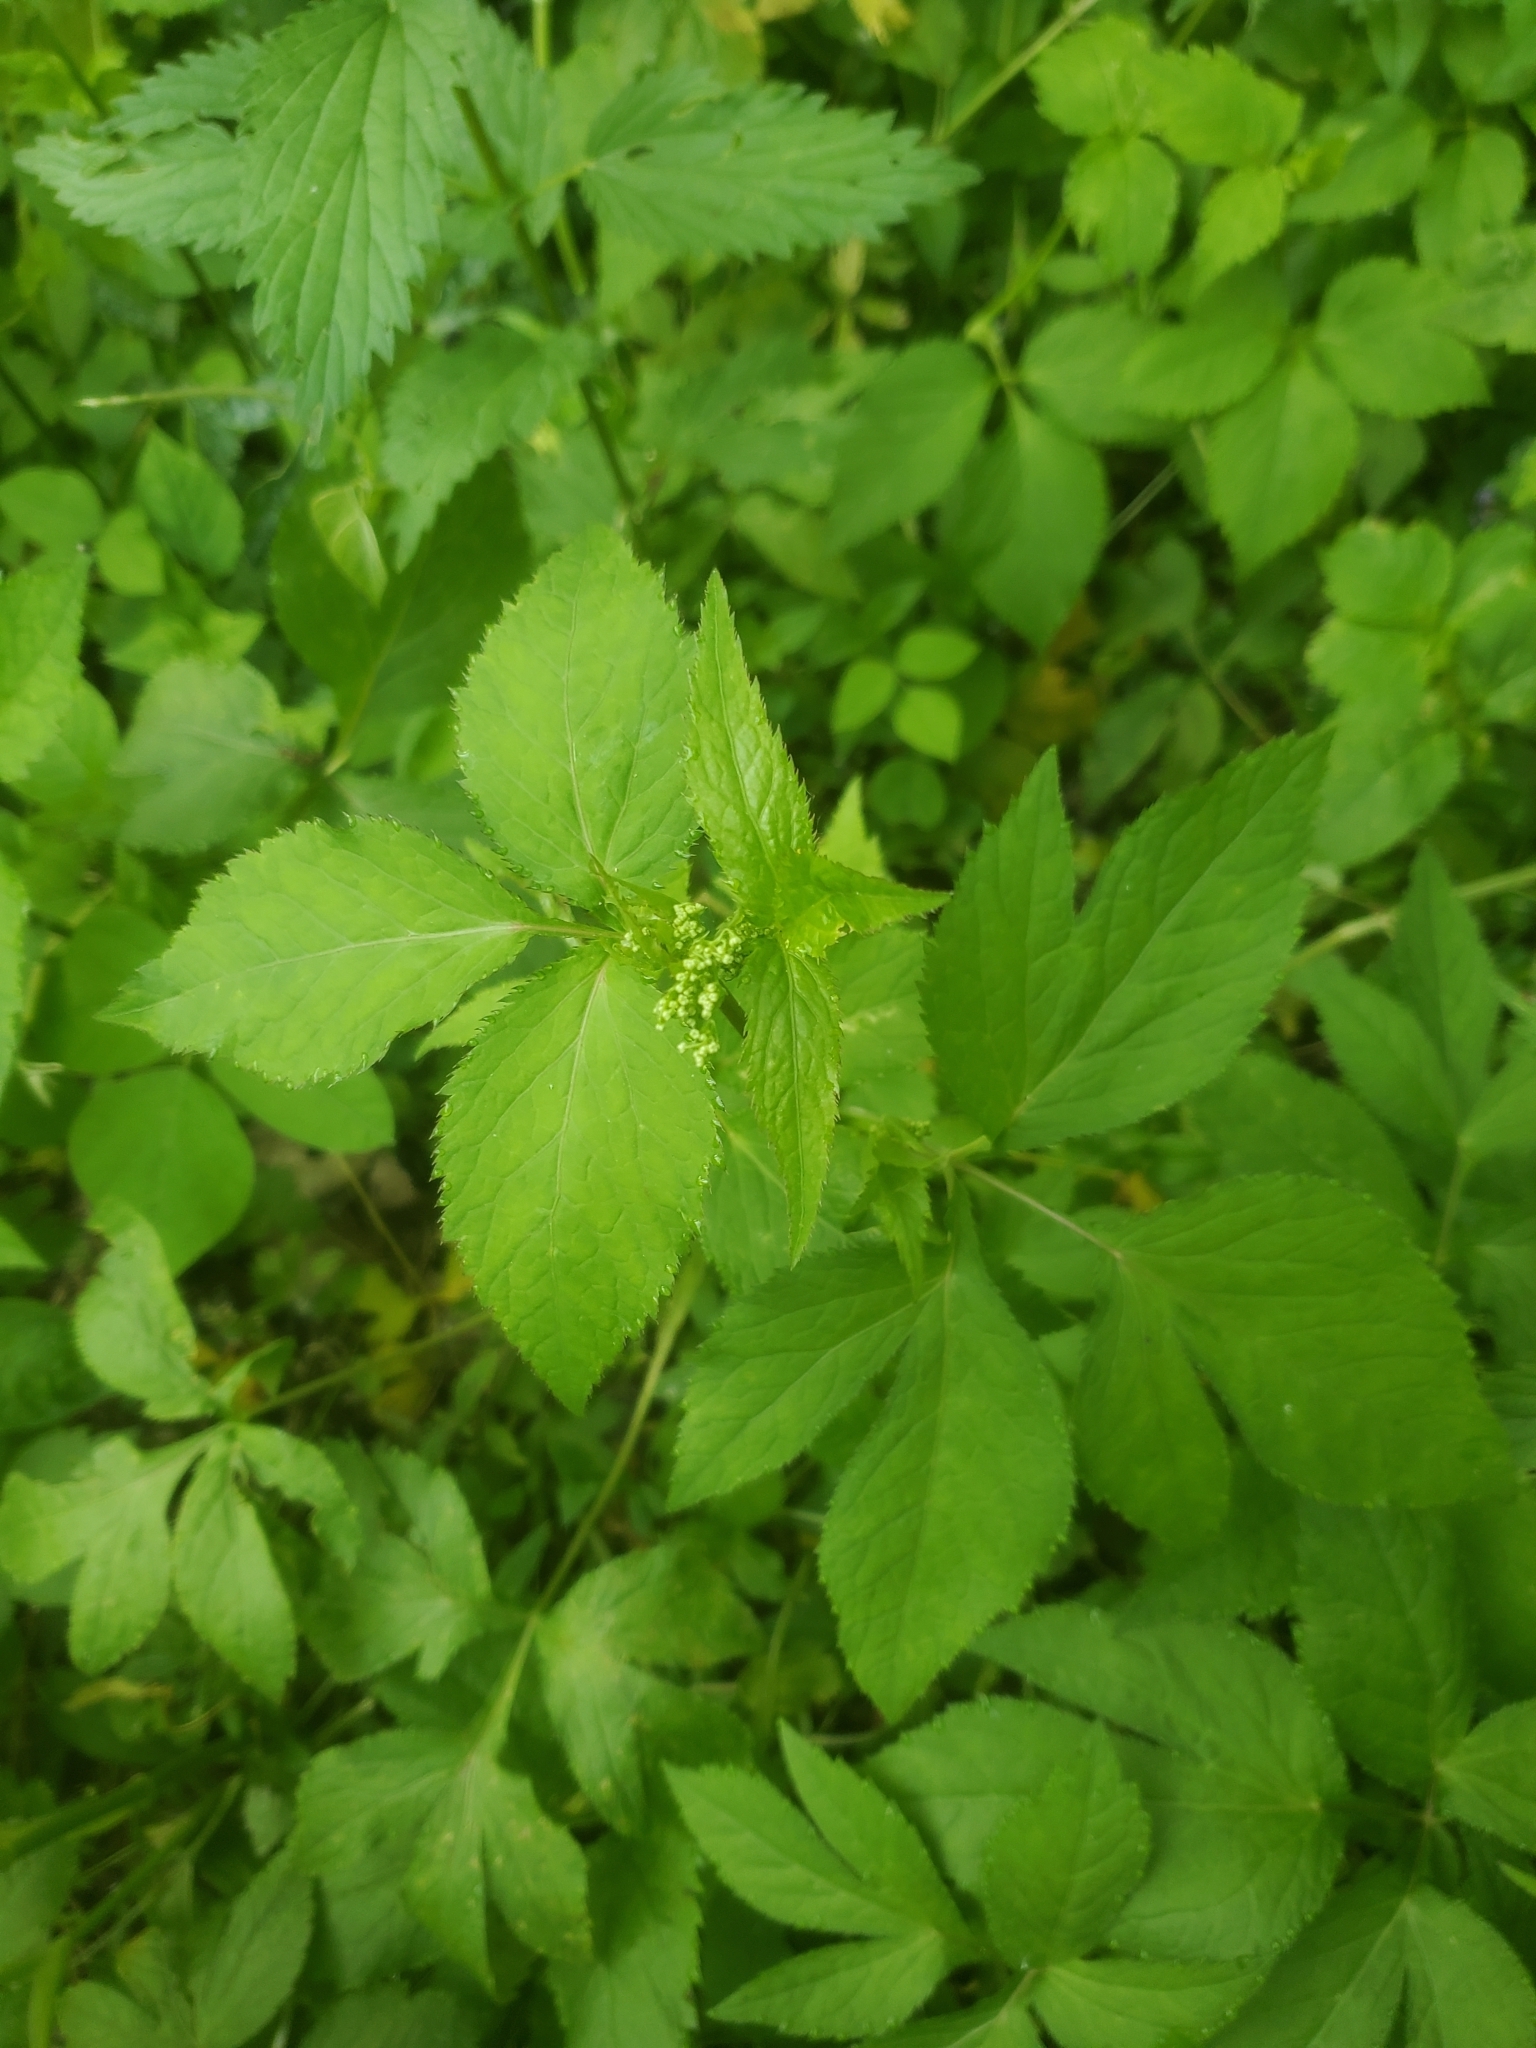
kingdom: Plantae
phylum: Tracheophyta
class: Magnoliopsida
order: Apiales
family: Apiaceae
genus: Cryptotaenia
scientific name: Cryptotaenia canadensis
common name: Honewort
